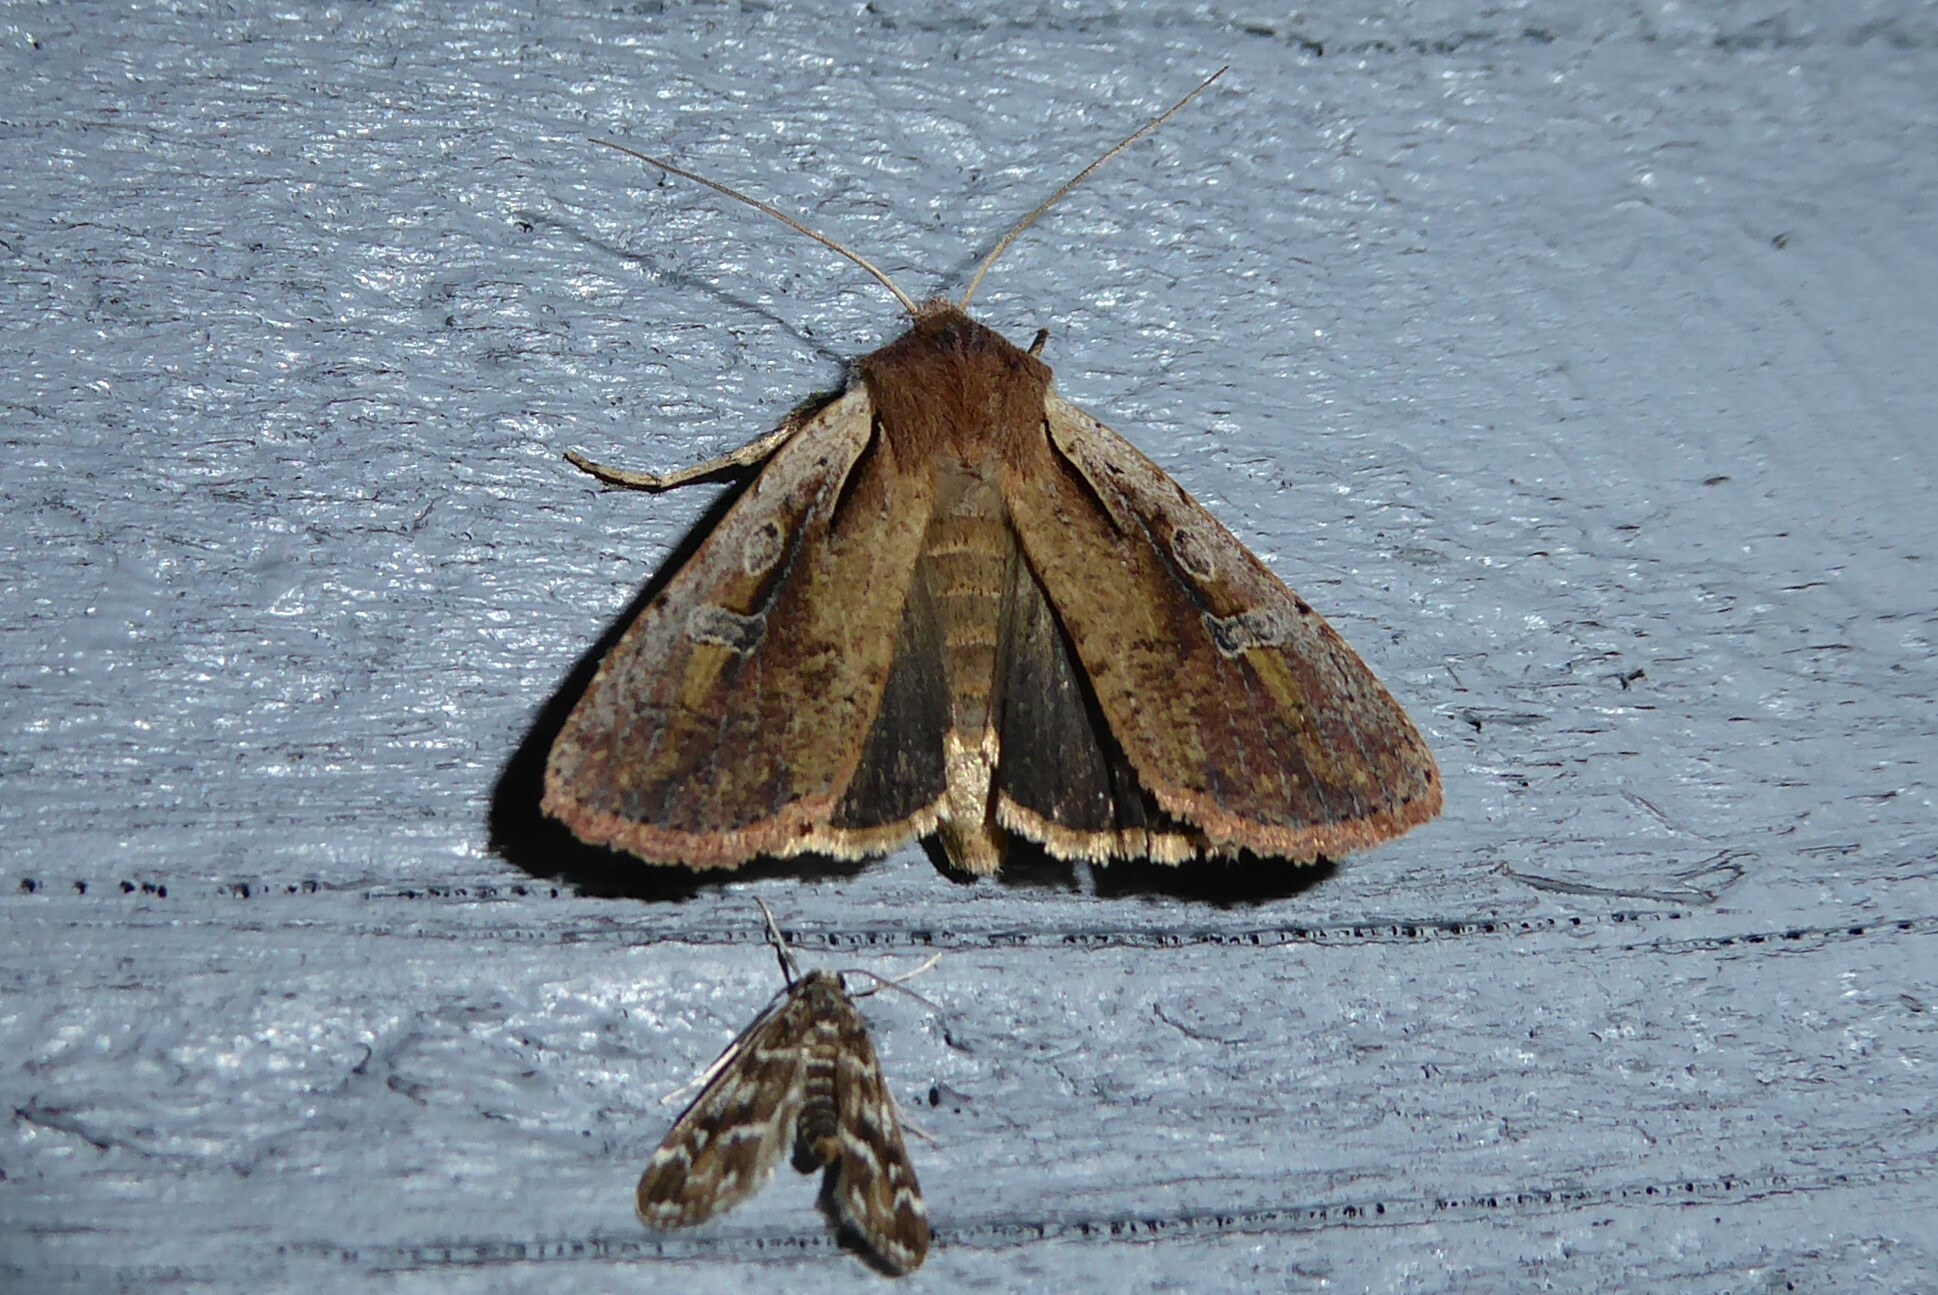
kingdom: Animalia
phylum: Arthropoda
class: Insecta
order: Lepidoptera
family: Noctuidae
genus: Ichneutica
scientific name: Ichneutica atristriga
